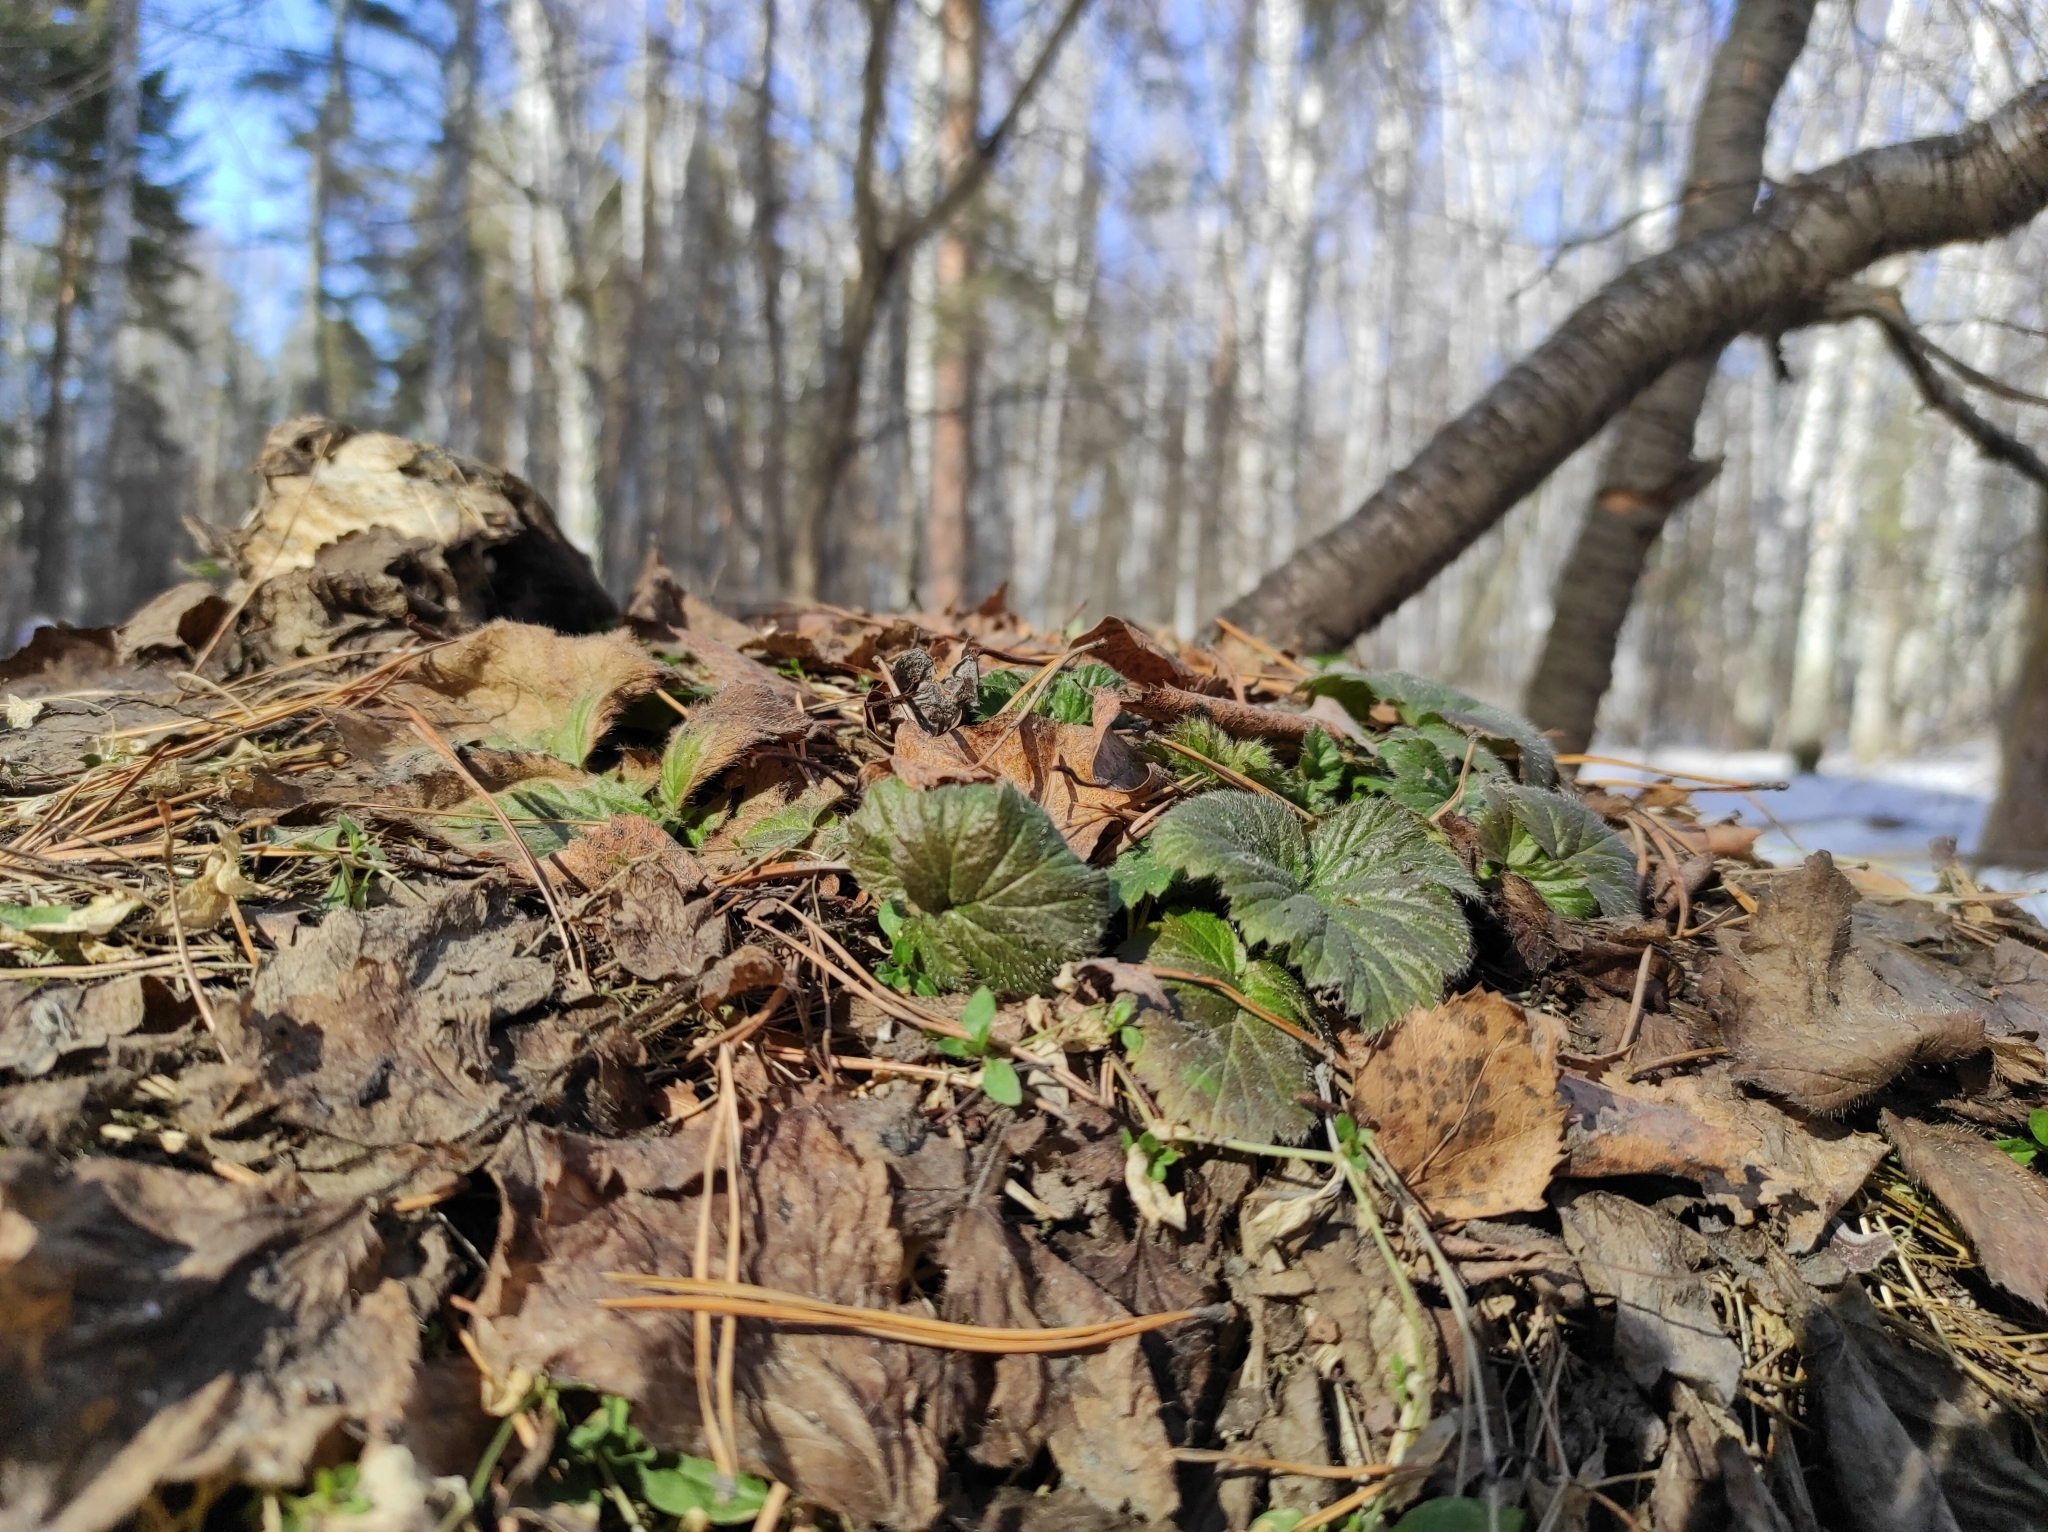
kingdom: Plantae
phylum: Tracheophyta
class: Magnoliopsida
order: Rosales
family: Rosaceae
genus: Geum
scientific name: Geum
